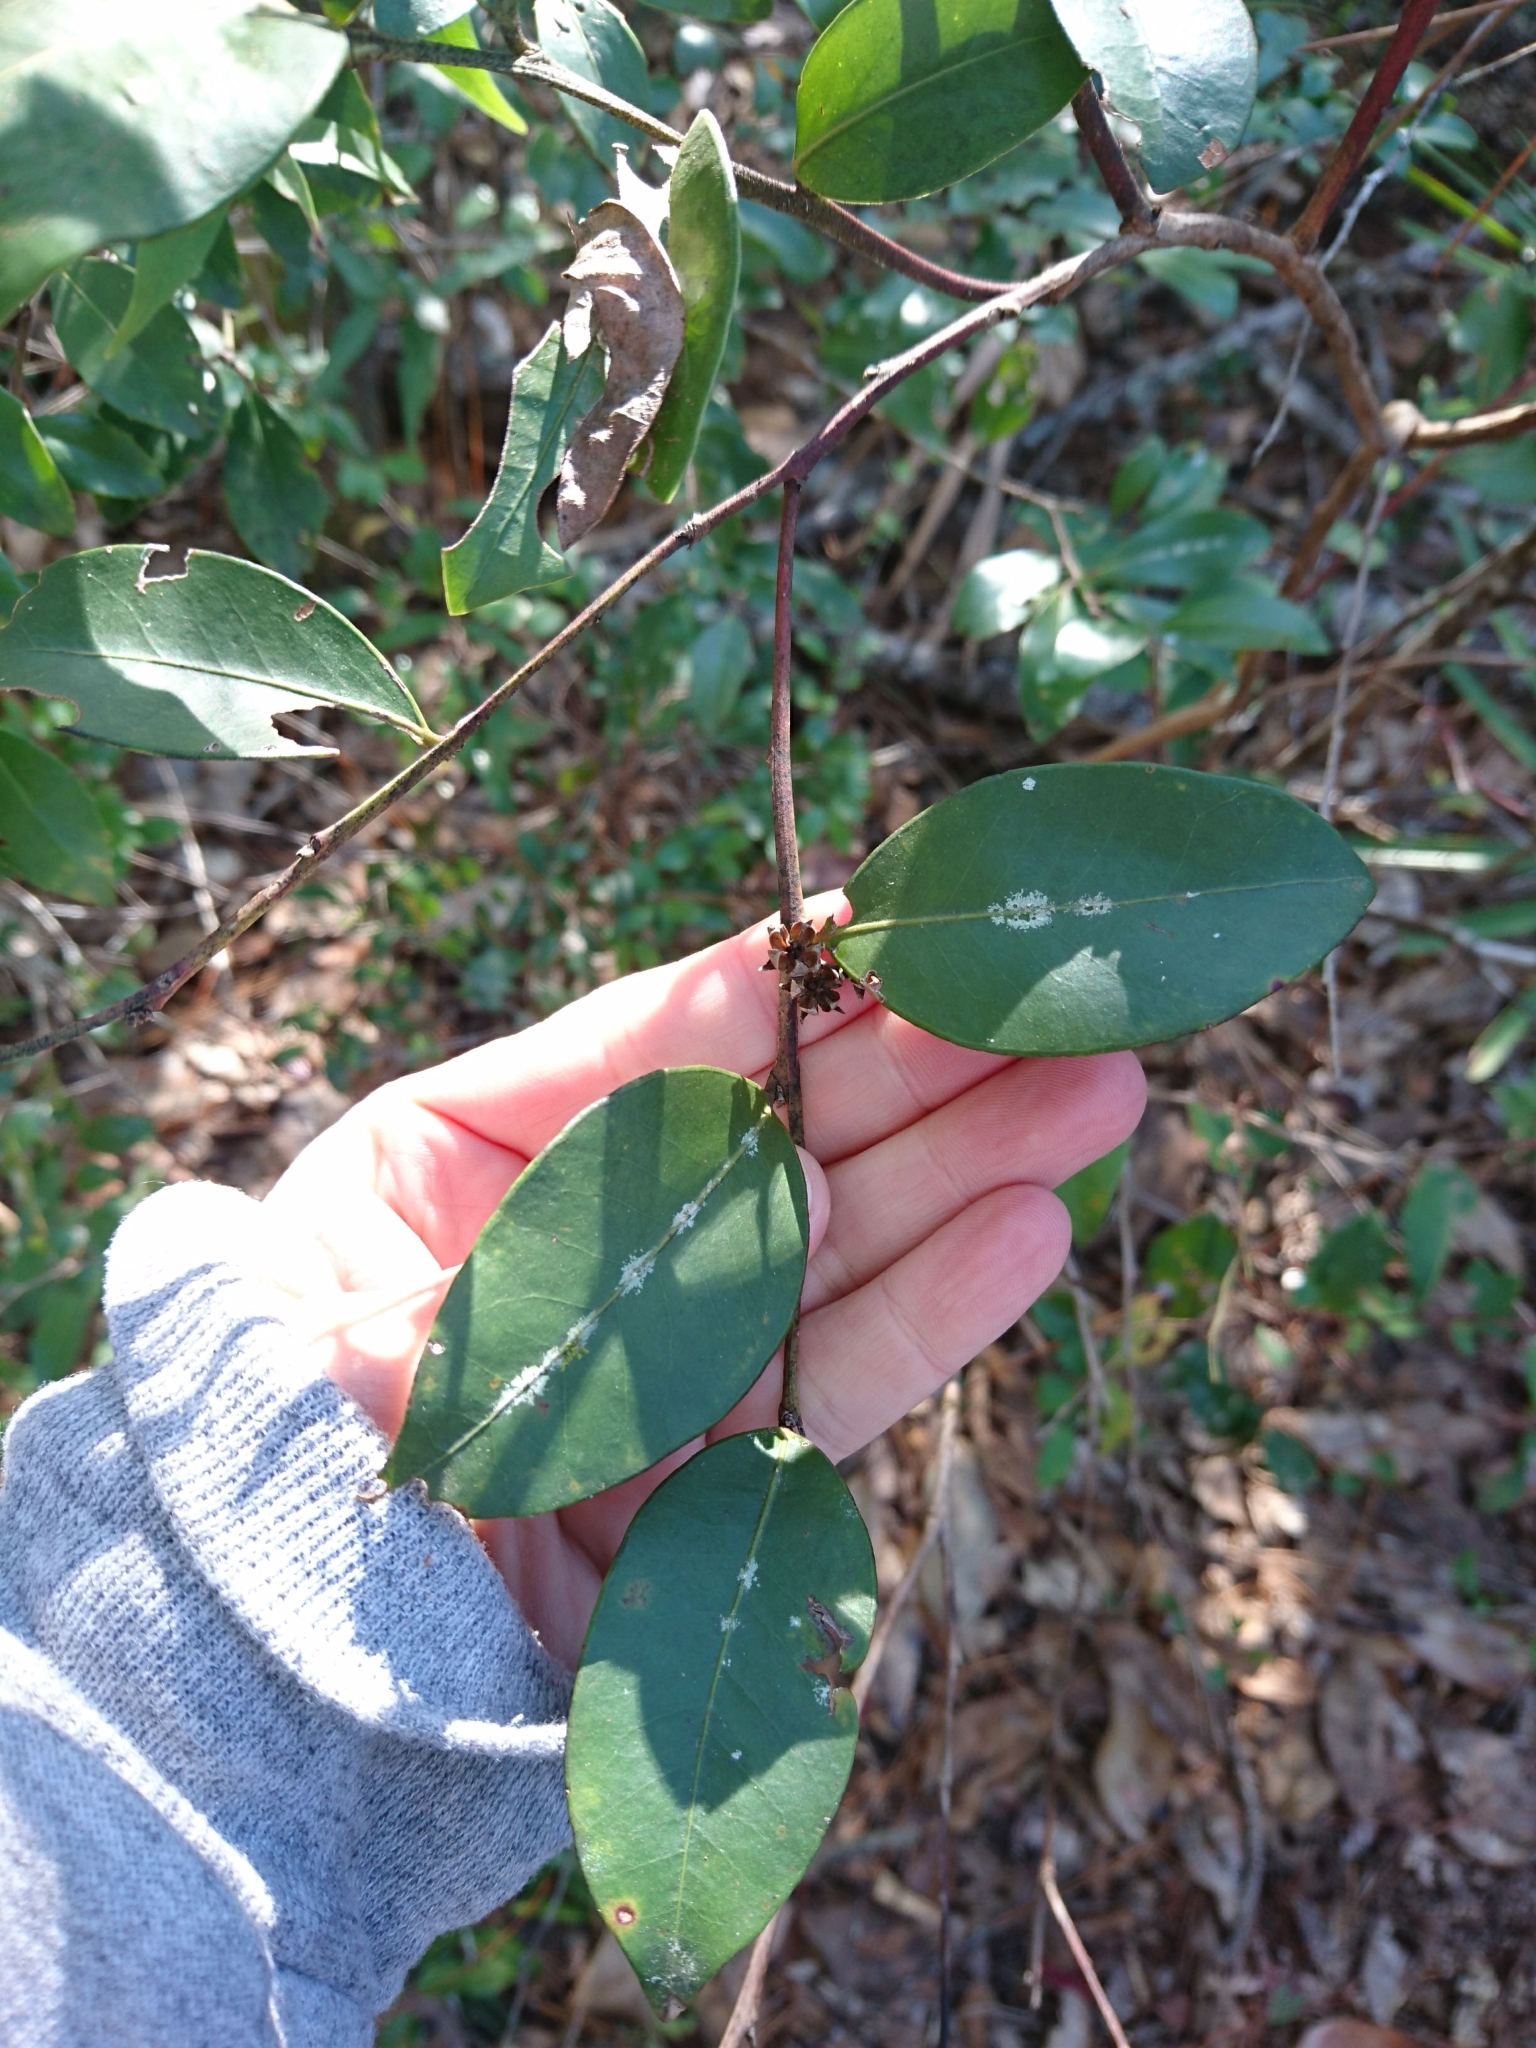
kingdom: Plantae
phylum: Tracheophyta
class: Magnoliopsida
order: Ericales
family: Ericaceae
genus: Lyonia
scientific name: Lyonia lucida
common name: Fetterbush
